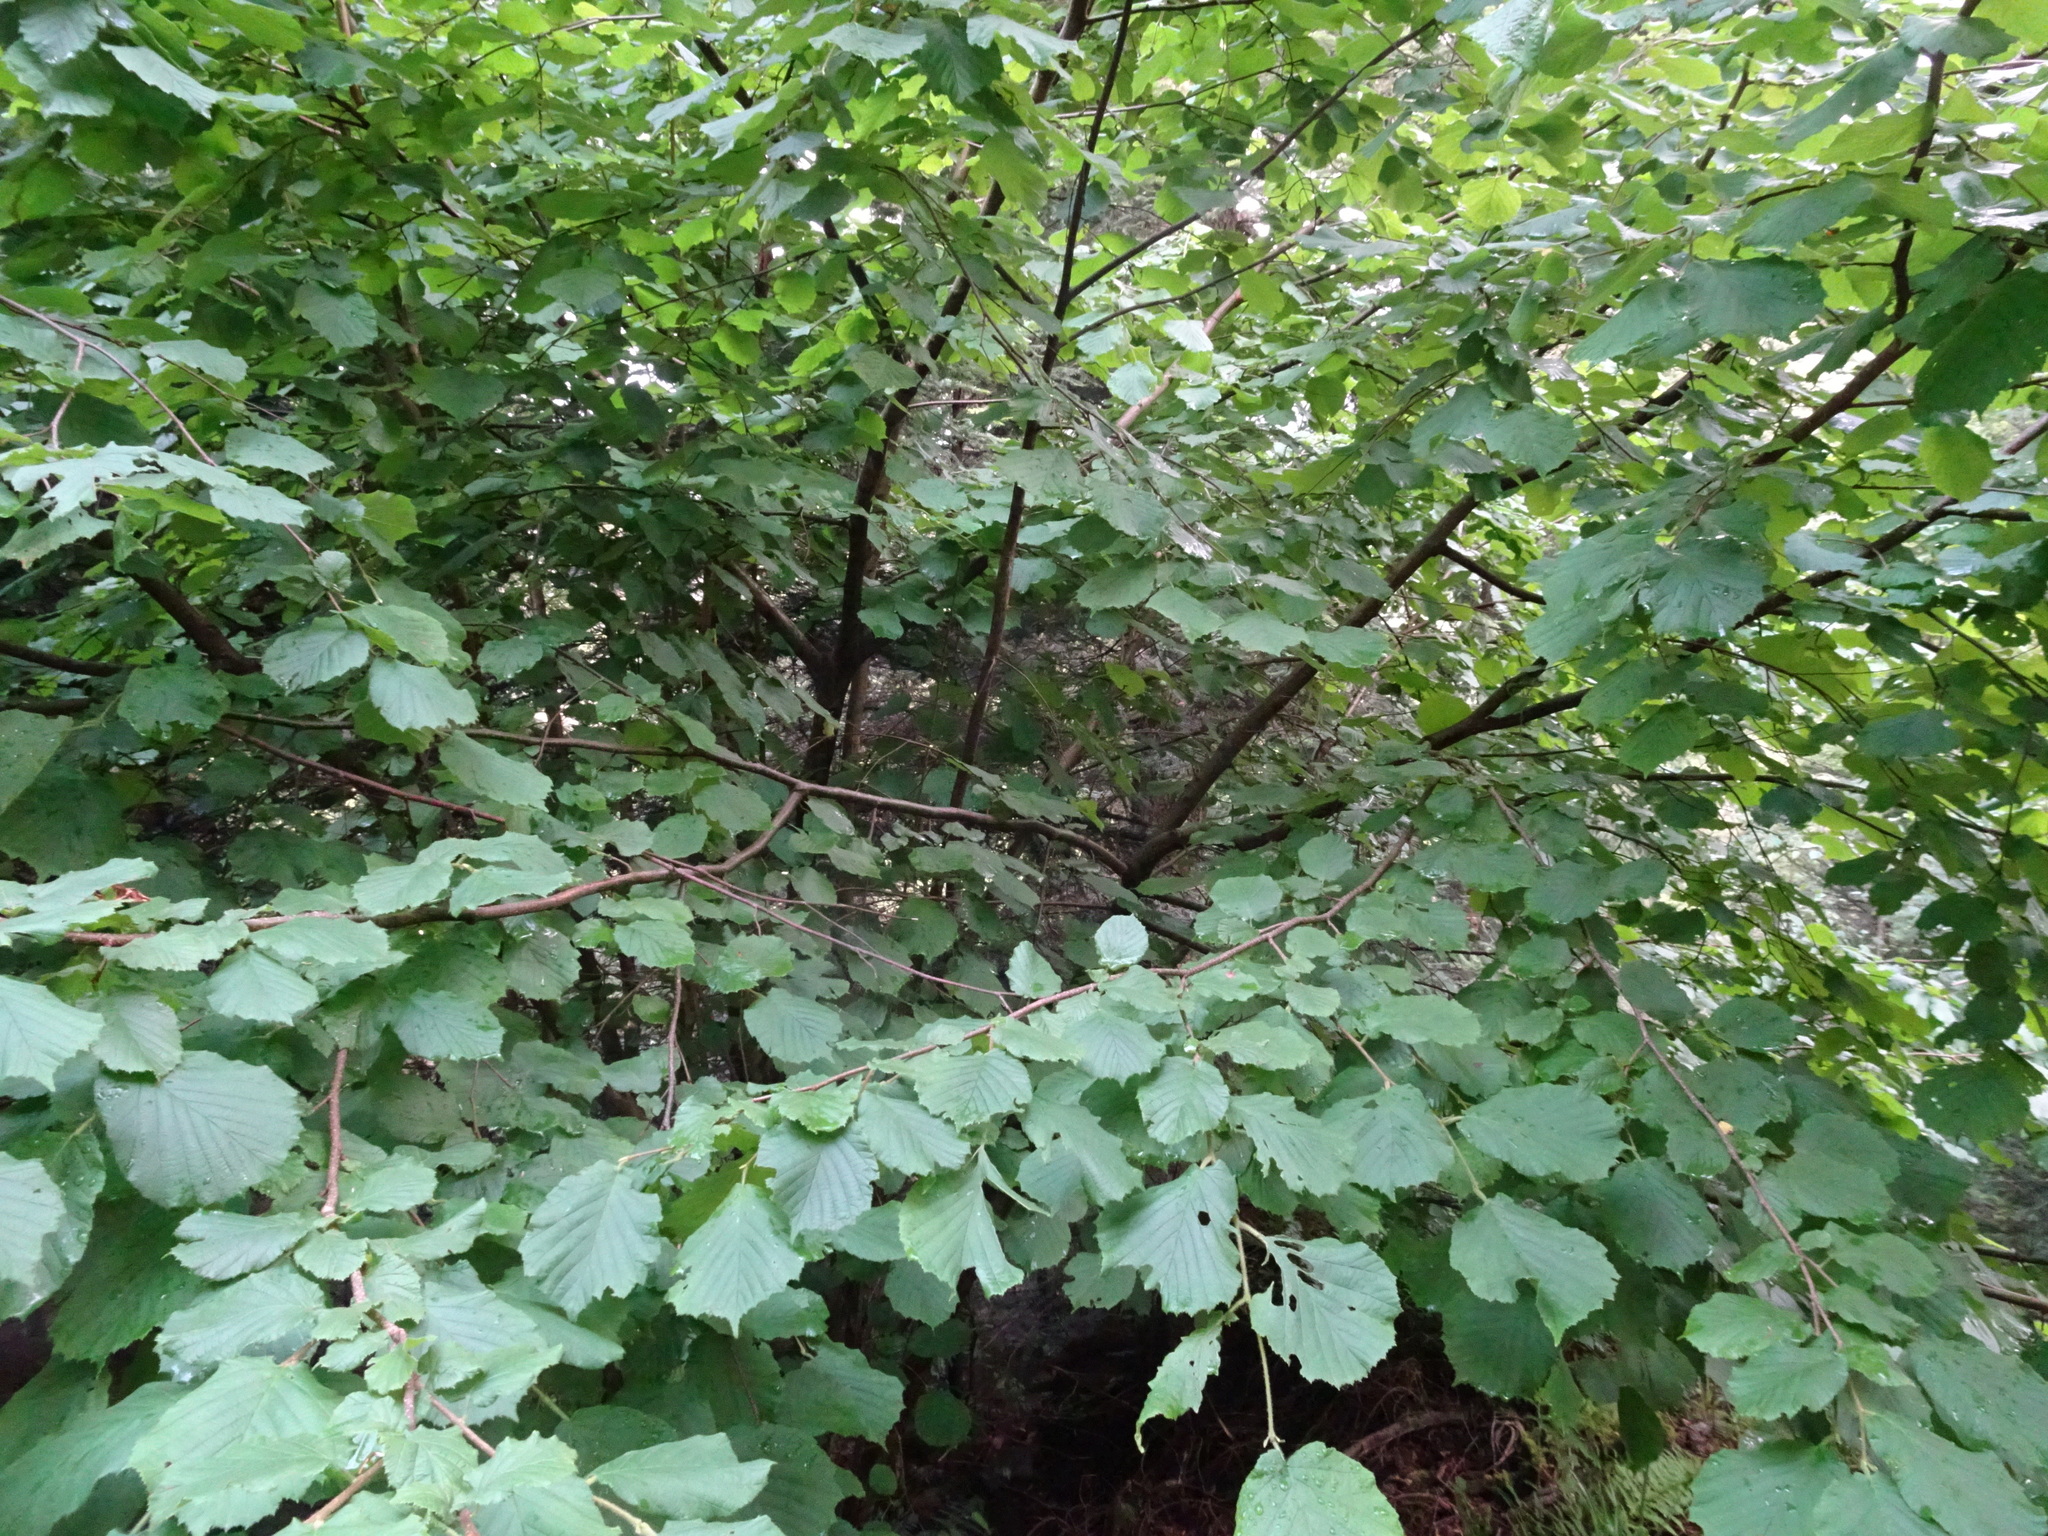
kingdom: Plantae
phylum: Tracheophyta
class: Magnoliopsida
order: Fagales
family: Betulaceae
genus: Corylus
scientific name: Corylus avellana
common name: European hazel
